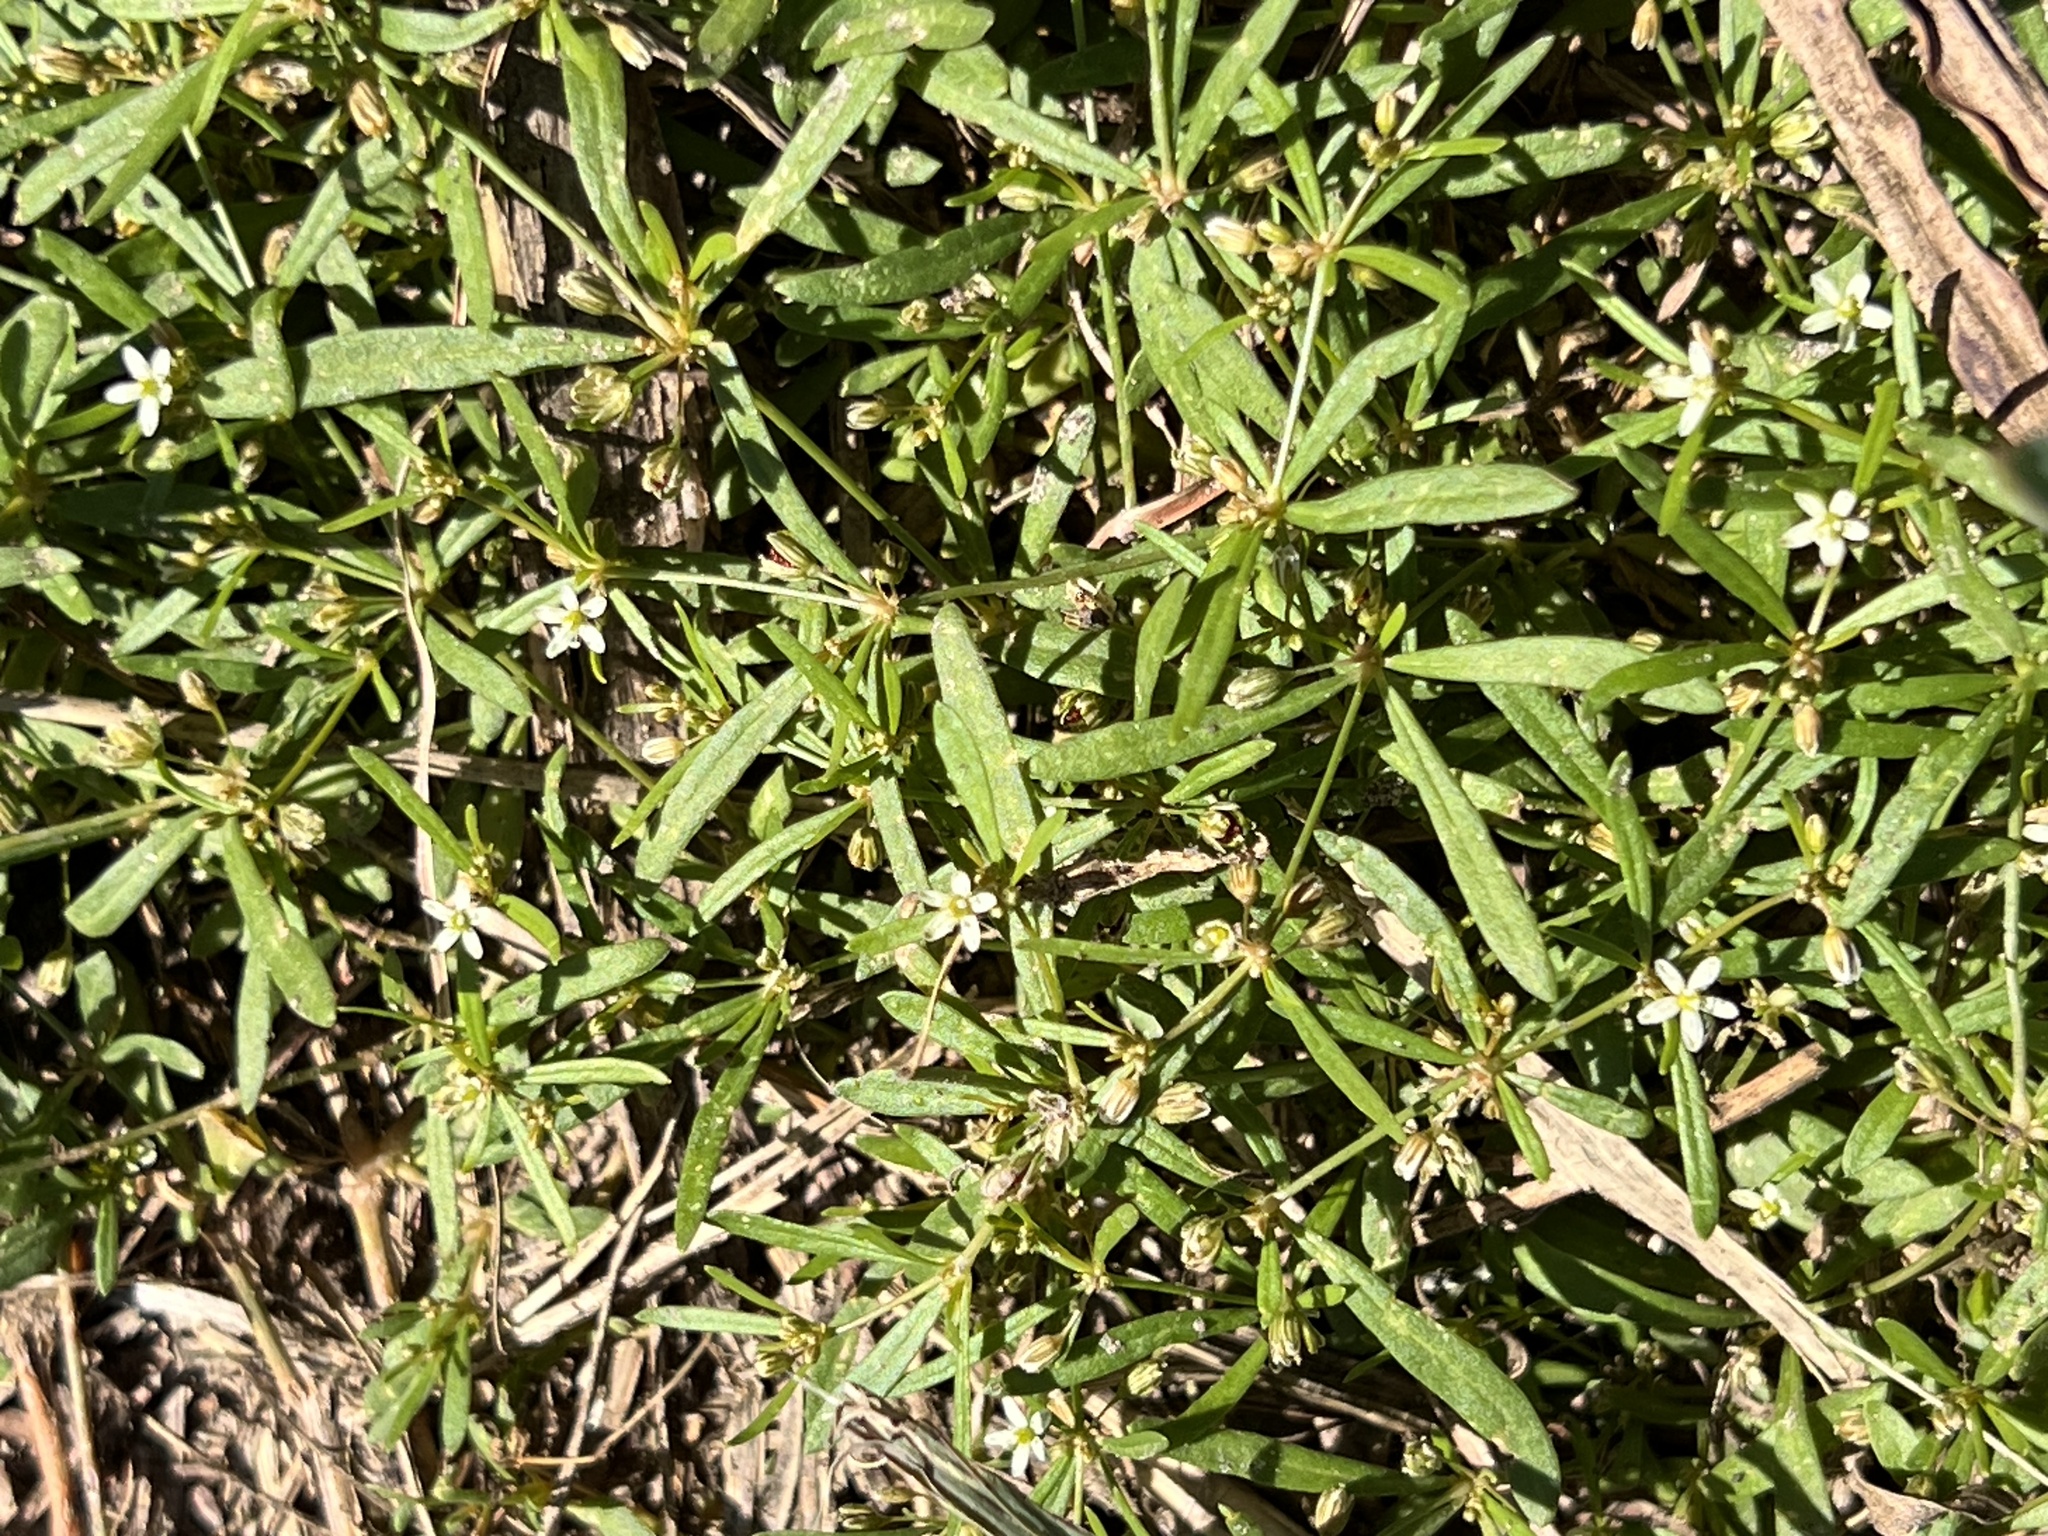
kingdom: Plantae
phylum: Tracheophyta
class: Magnoliopsida
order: Caryophyllales
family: Molluginaceae
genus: Mollugo
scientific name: Mollugo verticillata
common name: Green carpetweed
